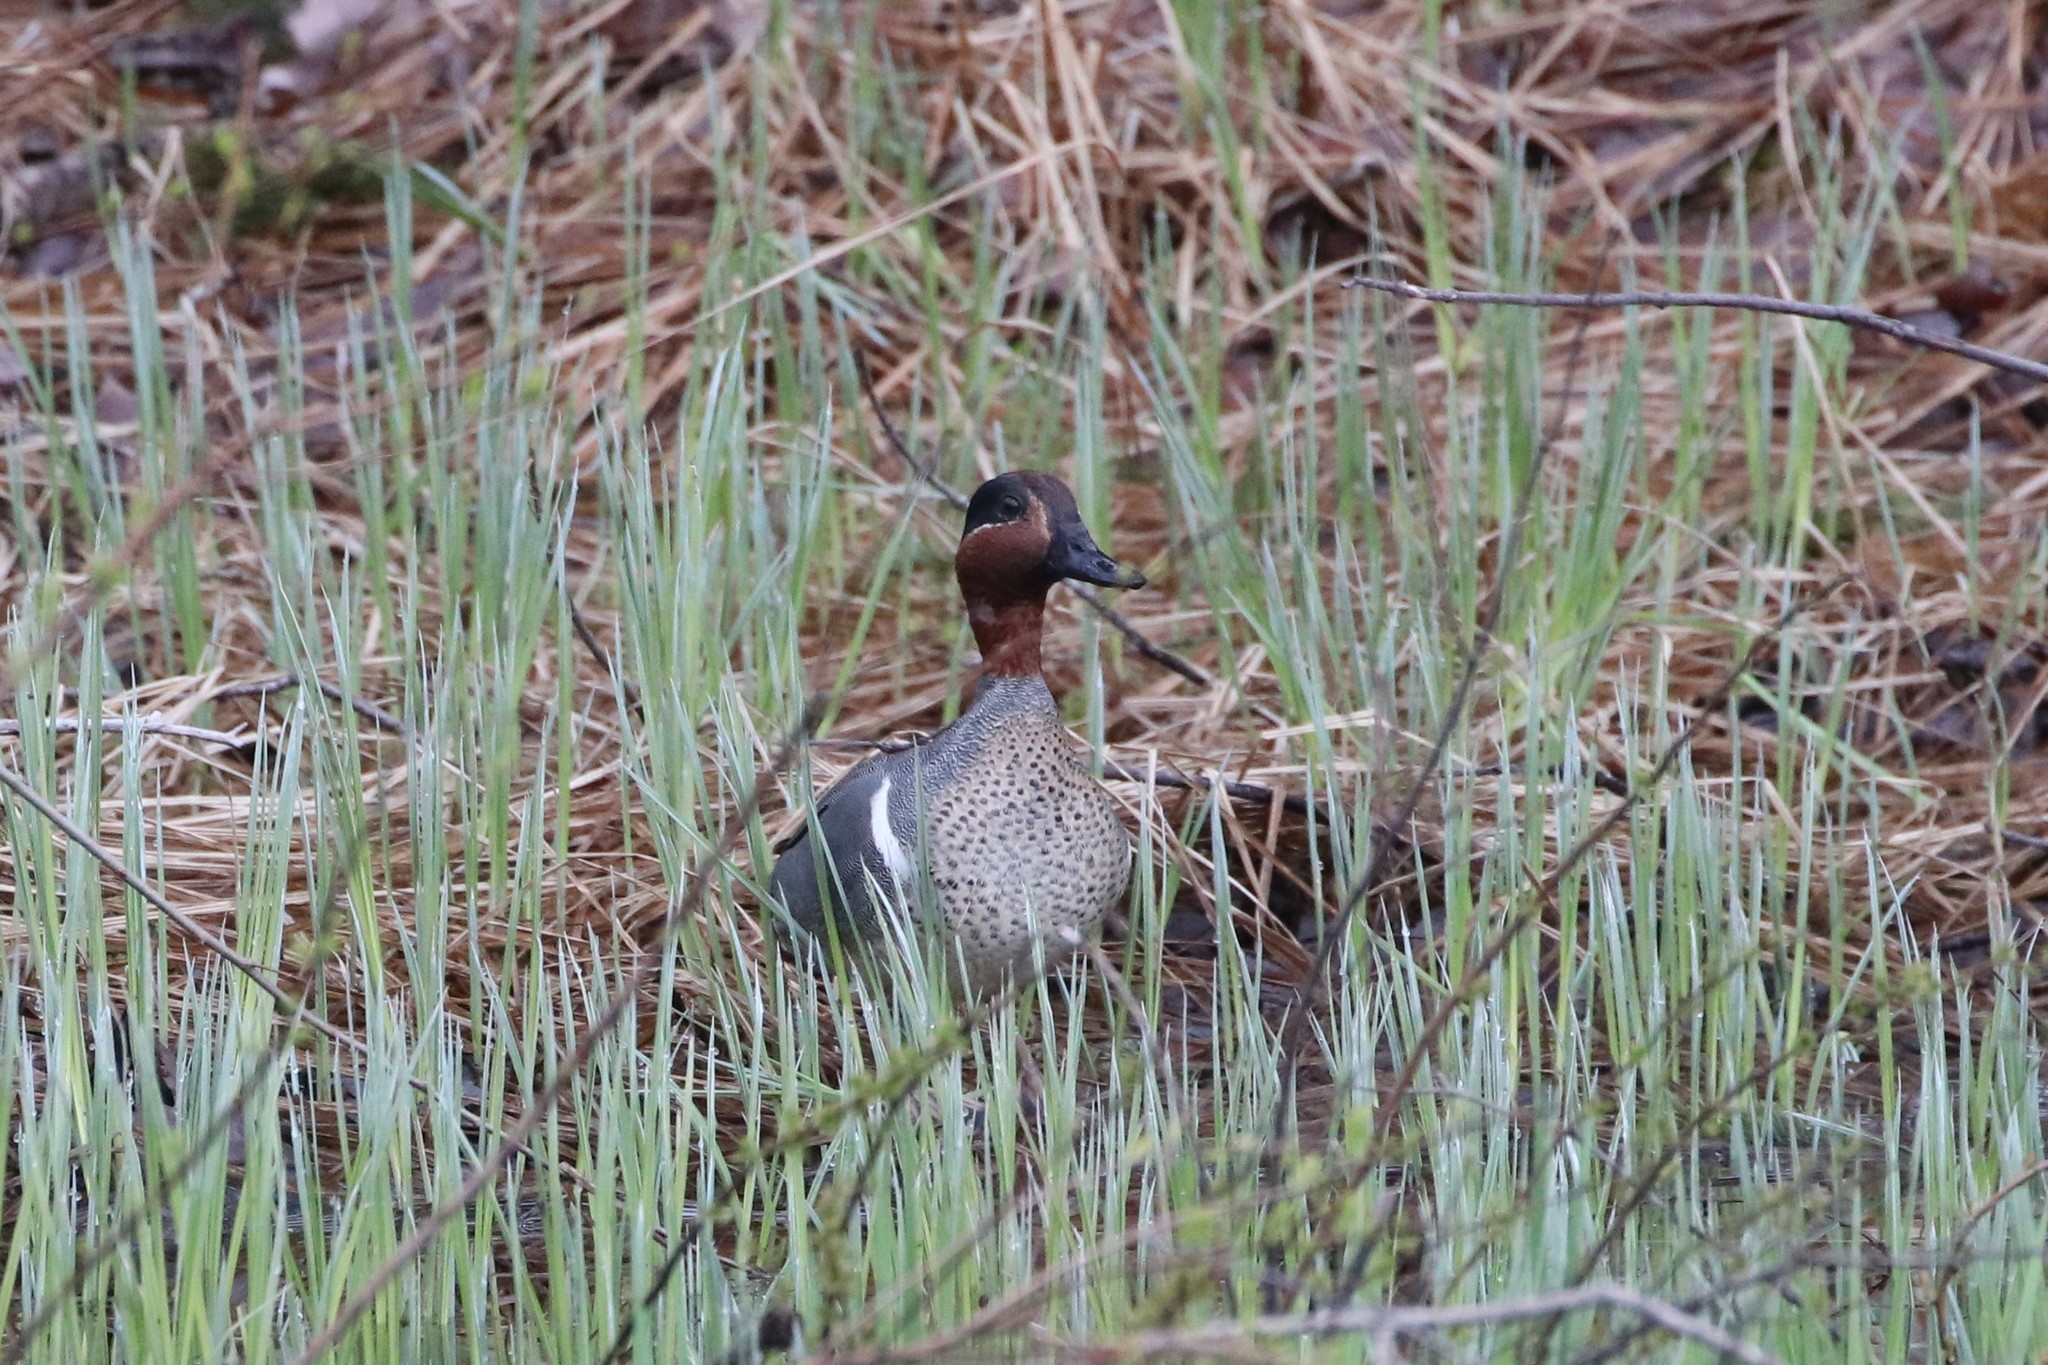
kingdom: Animalia
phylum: Chordata
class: Aves
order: Anseriformes
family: Anatidae
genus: Anas
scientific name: Anas crecca
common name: Eurasian teal
